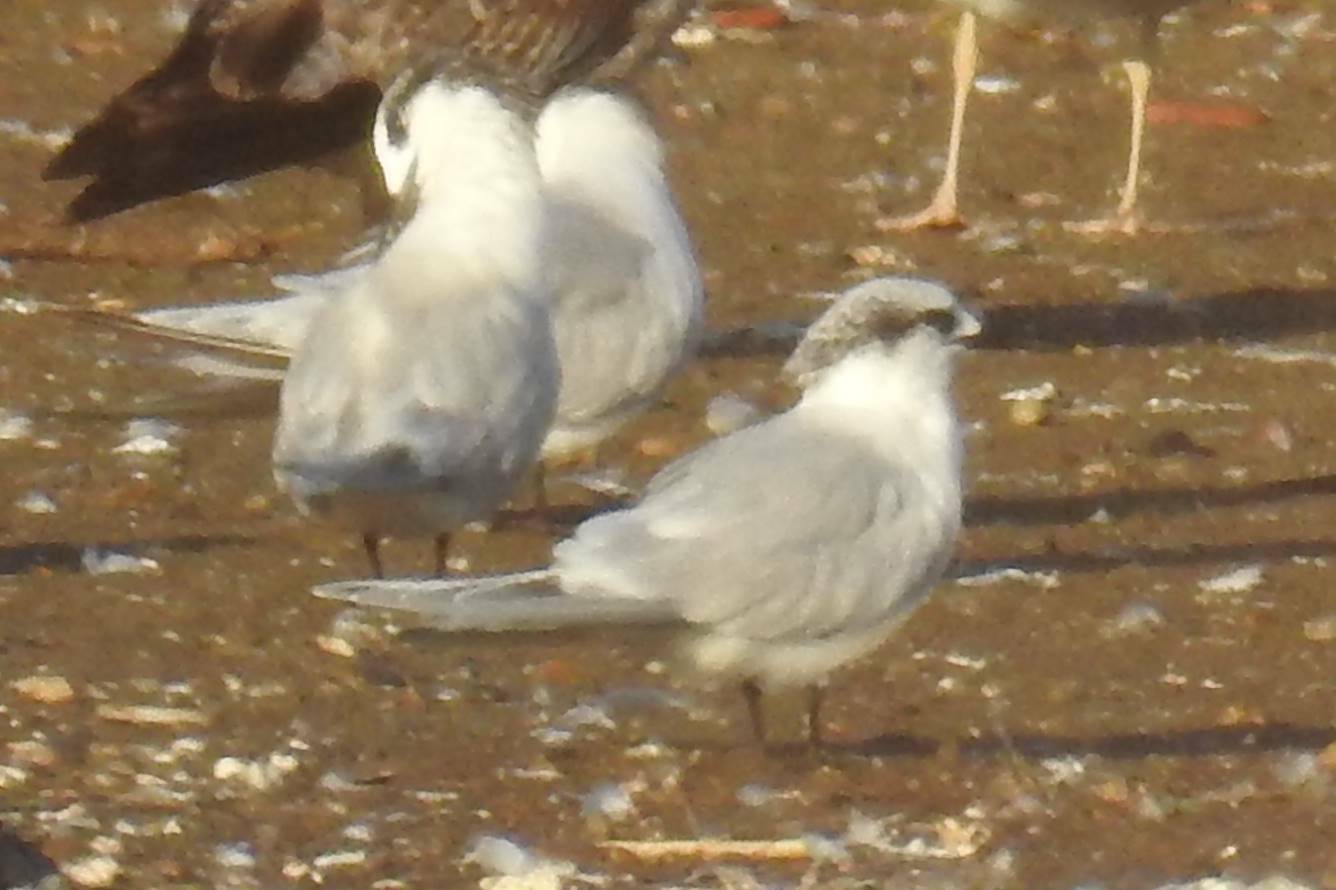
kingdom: Animalia
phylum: Chordata
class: Aves
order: Charadriiformes
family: Laridae
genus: Thalasseus
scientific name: Thalasseus sandvicensis
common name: Sandwich tern
